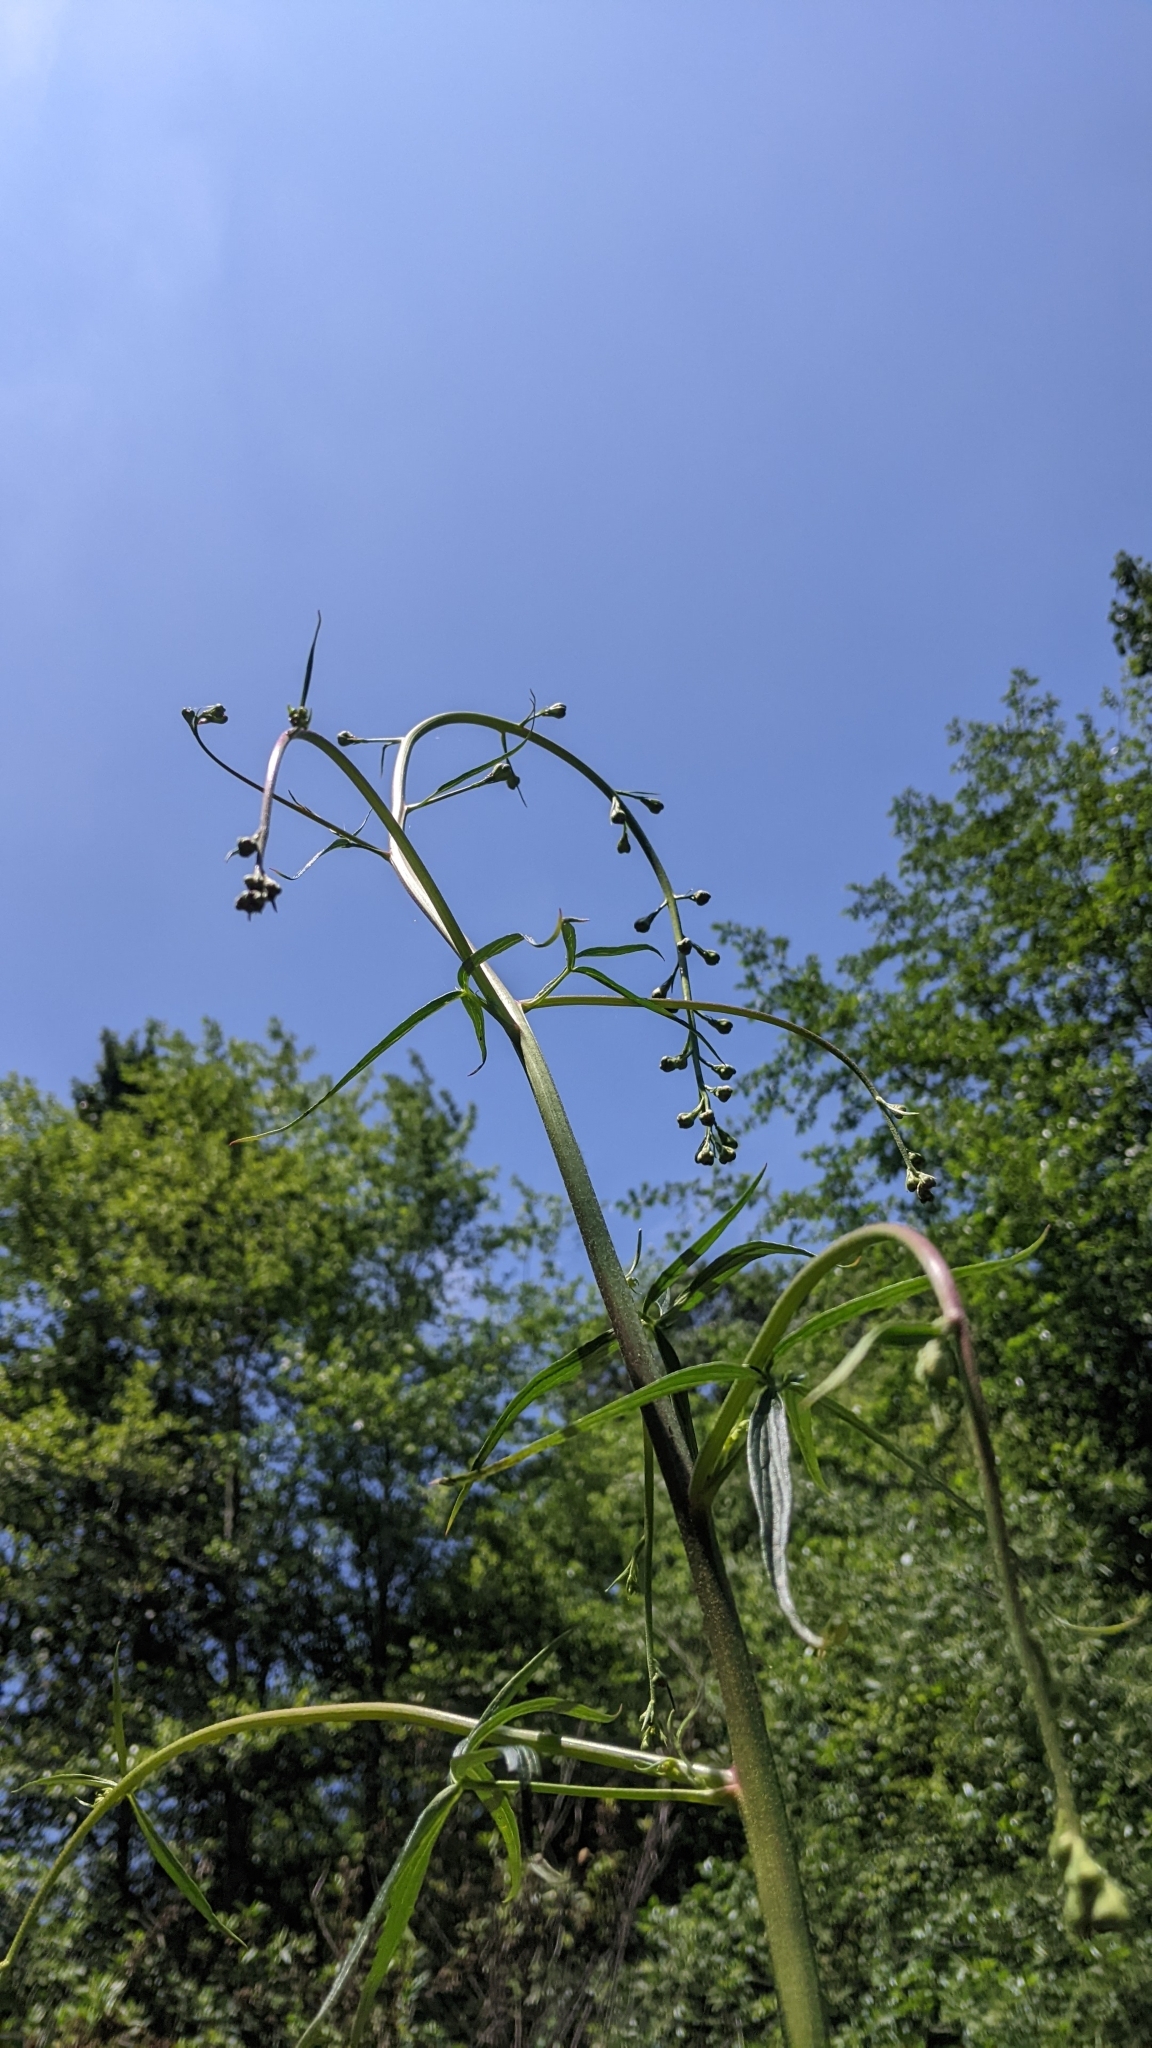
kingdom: Plantae
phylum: Tracheophyta
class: Magnoliopsida
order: Ranunculales
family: Ranunculaceae
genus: Delphinium
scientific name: Delphinium cardinale
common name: Scarlet larkspur
